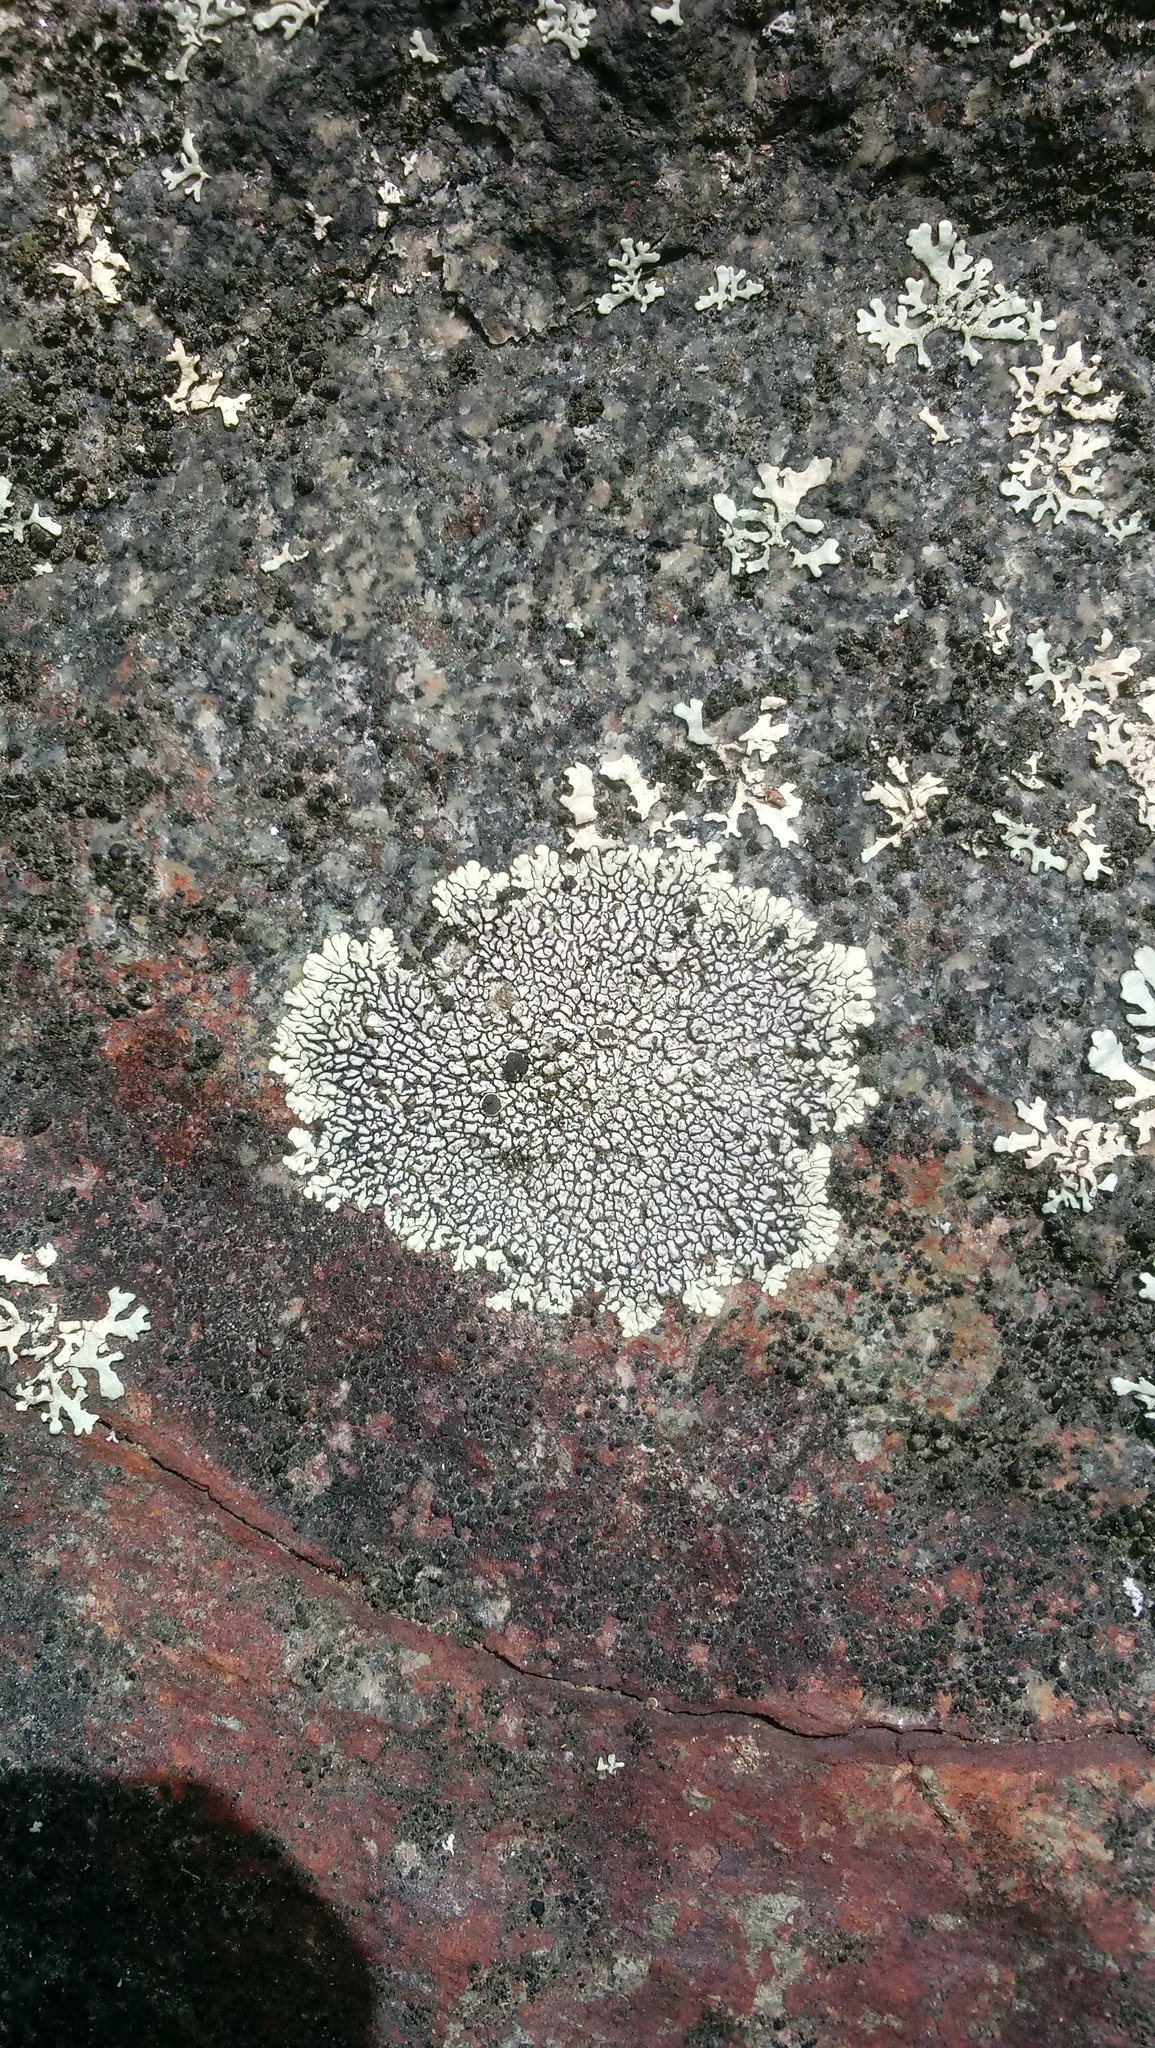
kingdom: Fungi
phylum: Ascomycota
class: Lecanoromycetes
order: Caliciales
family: Caliciaceae
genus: Dimelaena
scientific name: Dimelaena oreina
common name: Golden moonglow lichen
